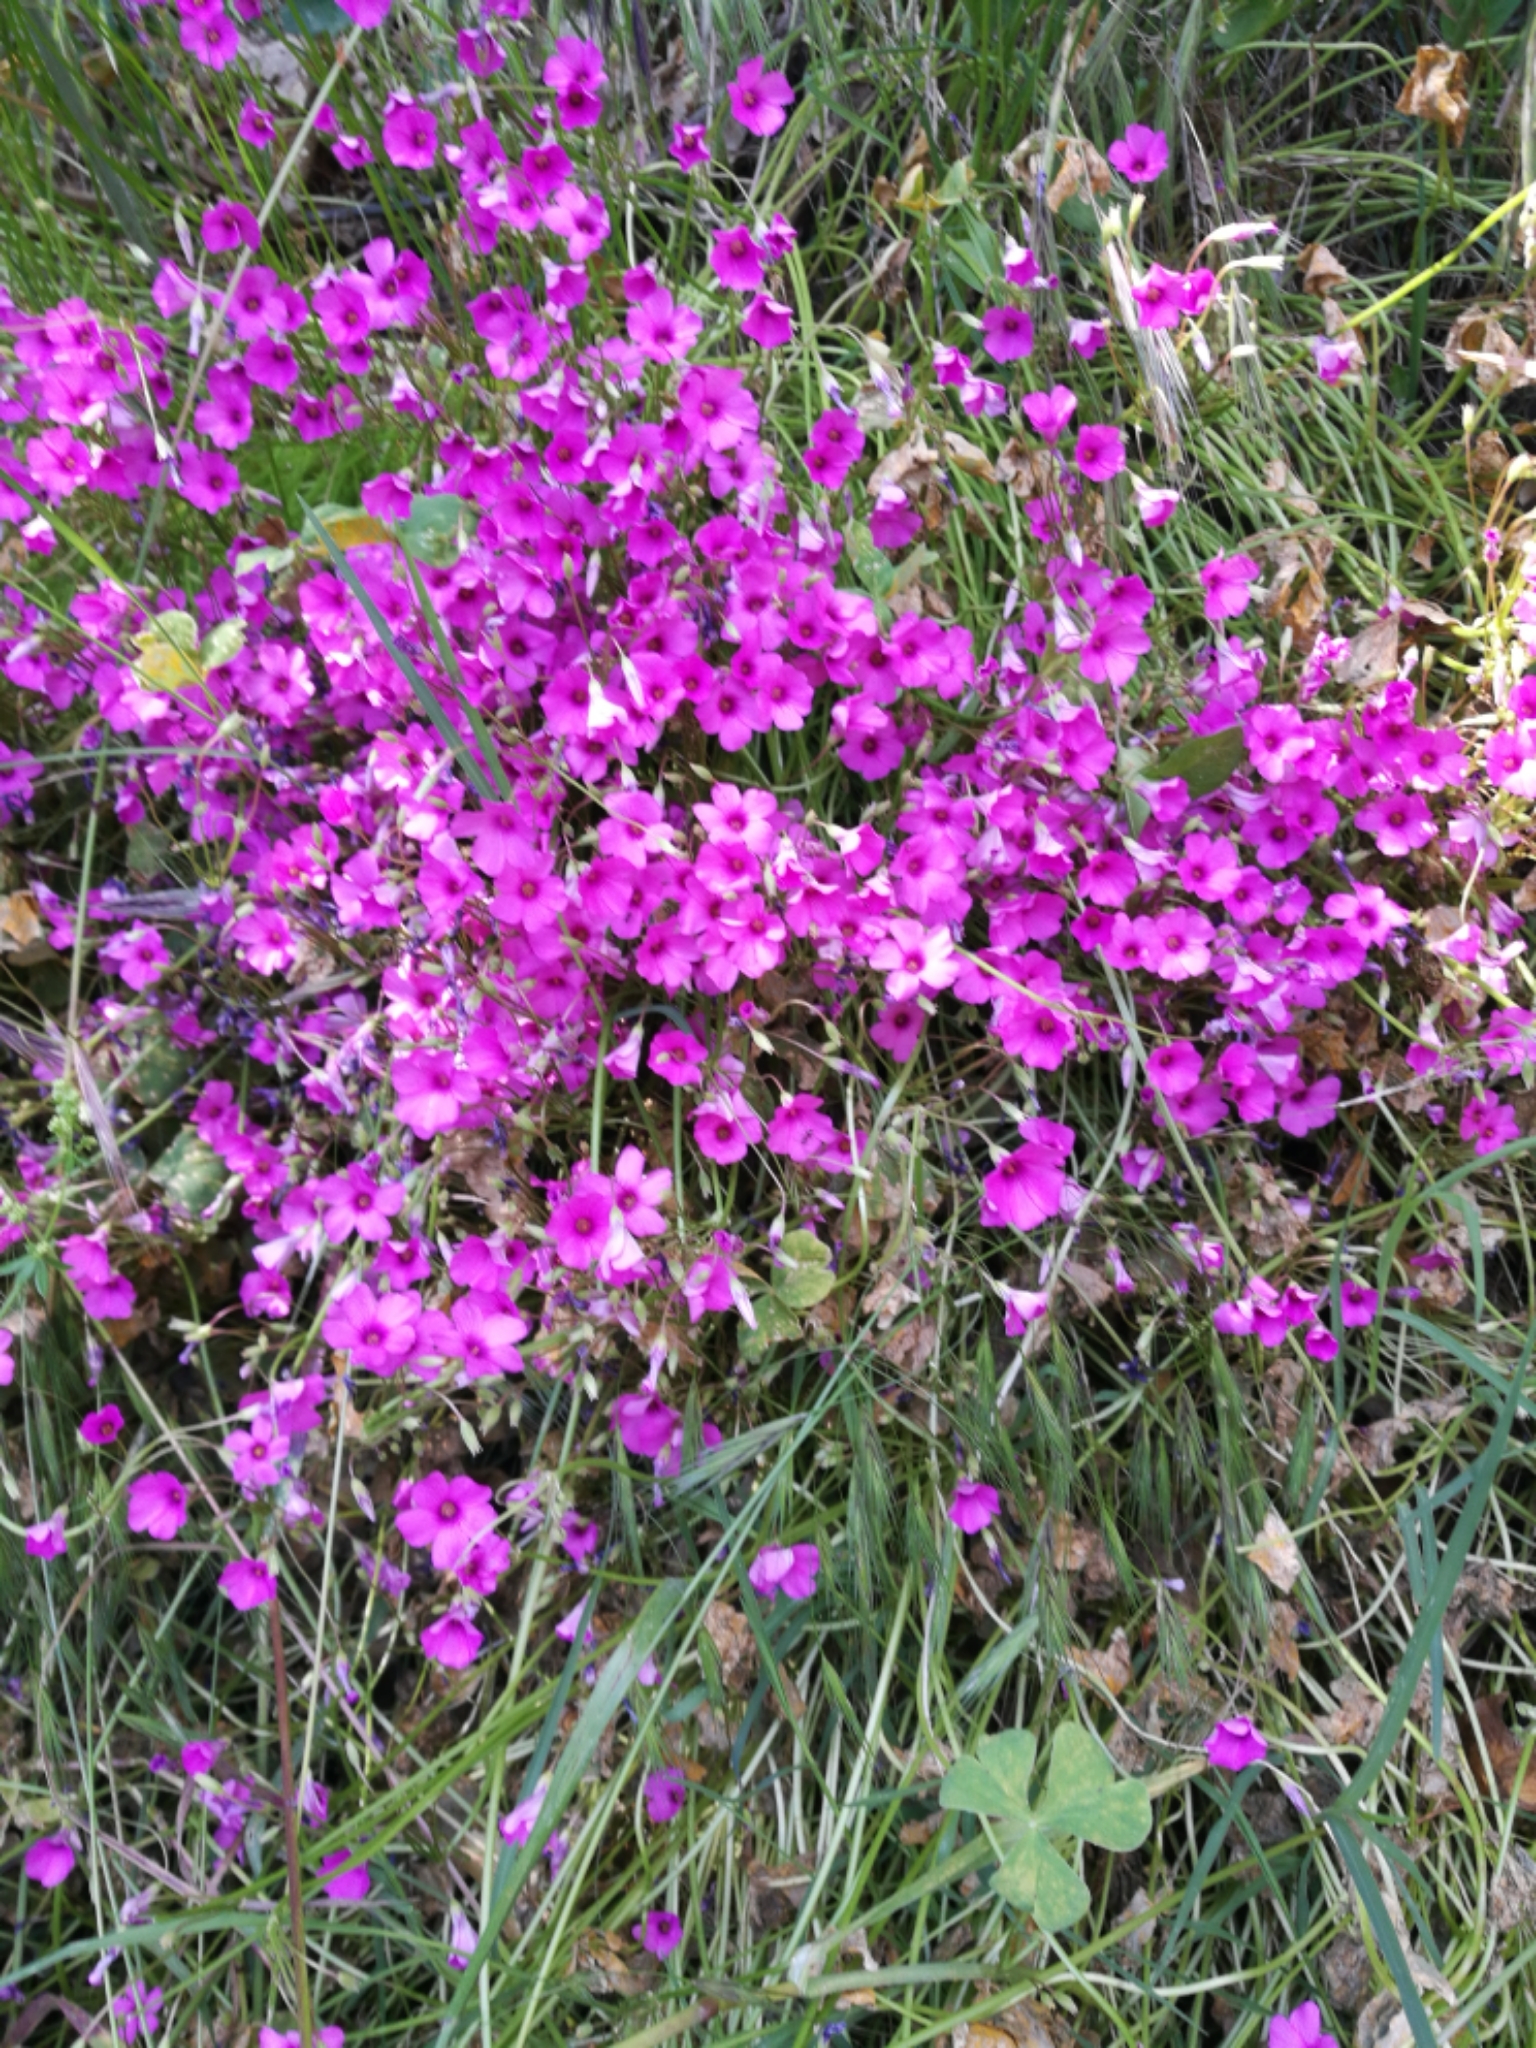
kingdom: Plantae
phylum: Tracheophyta
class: Magnoliopsida
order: Oxalidales
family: Oxalidaceae
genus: Oxalis
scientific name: Oxalis articulata
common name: Pink-sorrel
